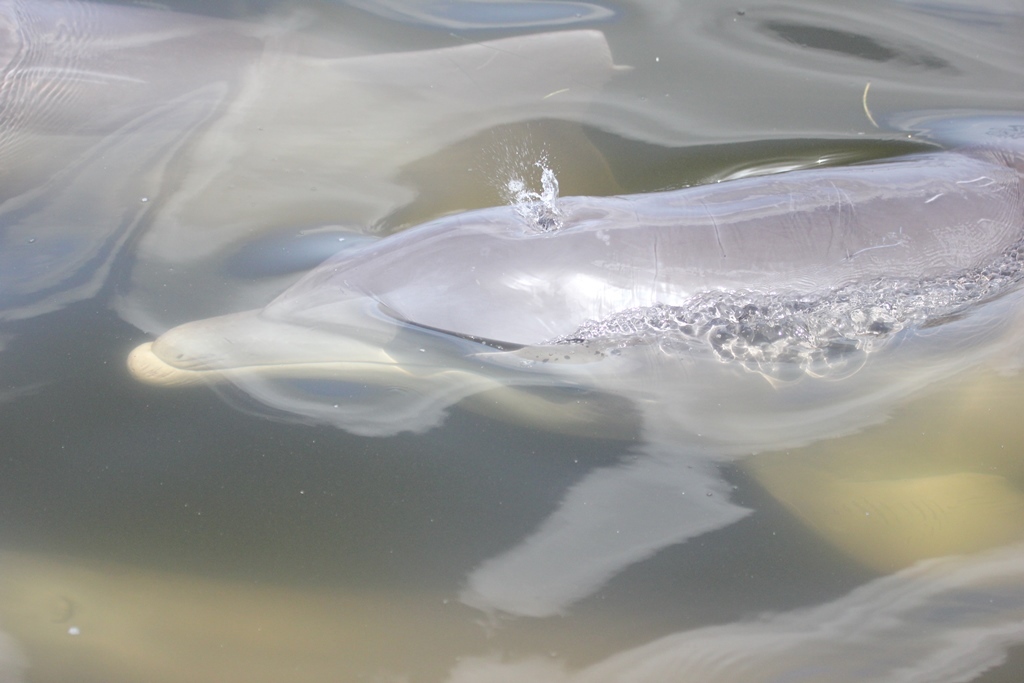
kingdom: Animalia
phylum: Chordata
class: Mammalia
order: Cetacea
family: Delphinidae
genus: Tursiops
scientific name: Tursiops truncatus
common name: Bottlenose dolphin
